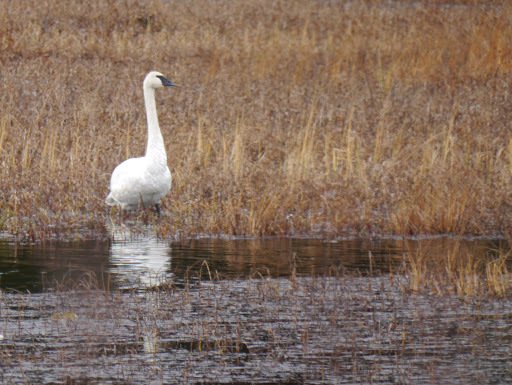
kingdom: Animalia
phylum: Chordata
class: Aves
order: Anseriformes
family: Anatidae
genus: Cygnus
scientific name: Cygnus buccinator
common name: Trumpeter swan
